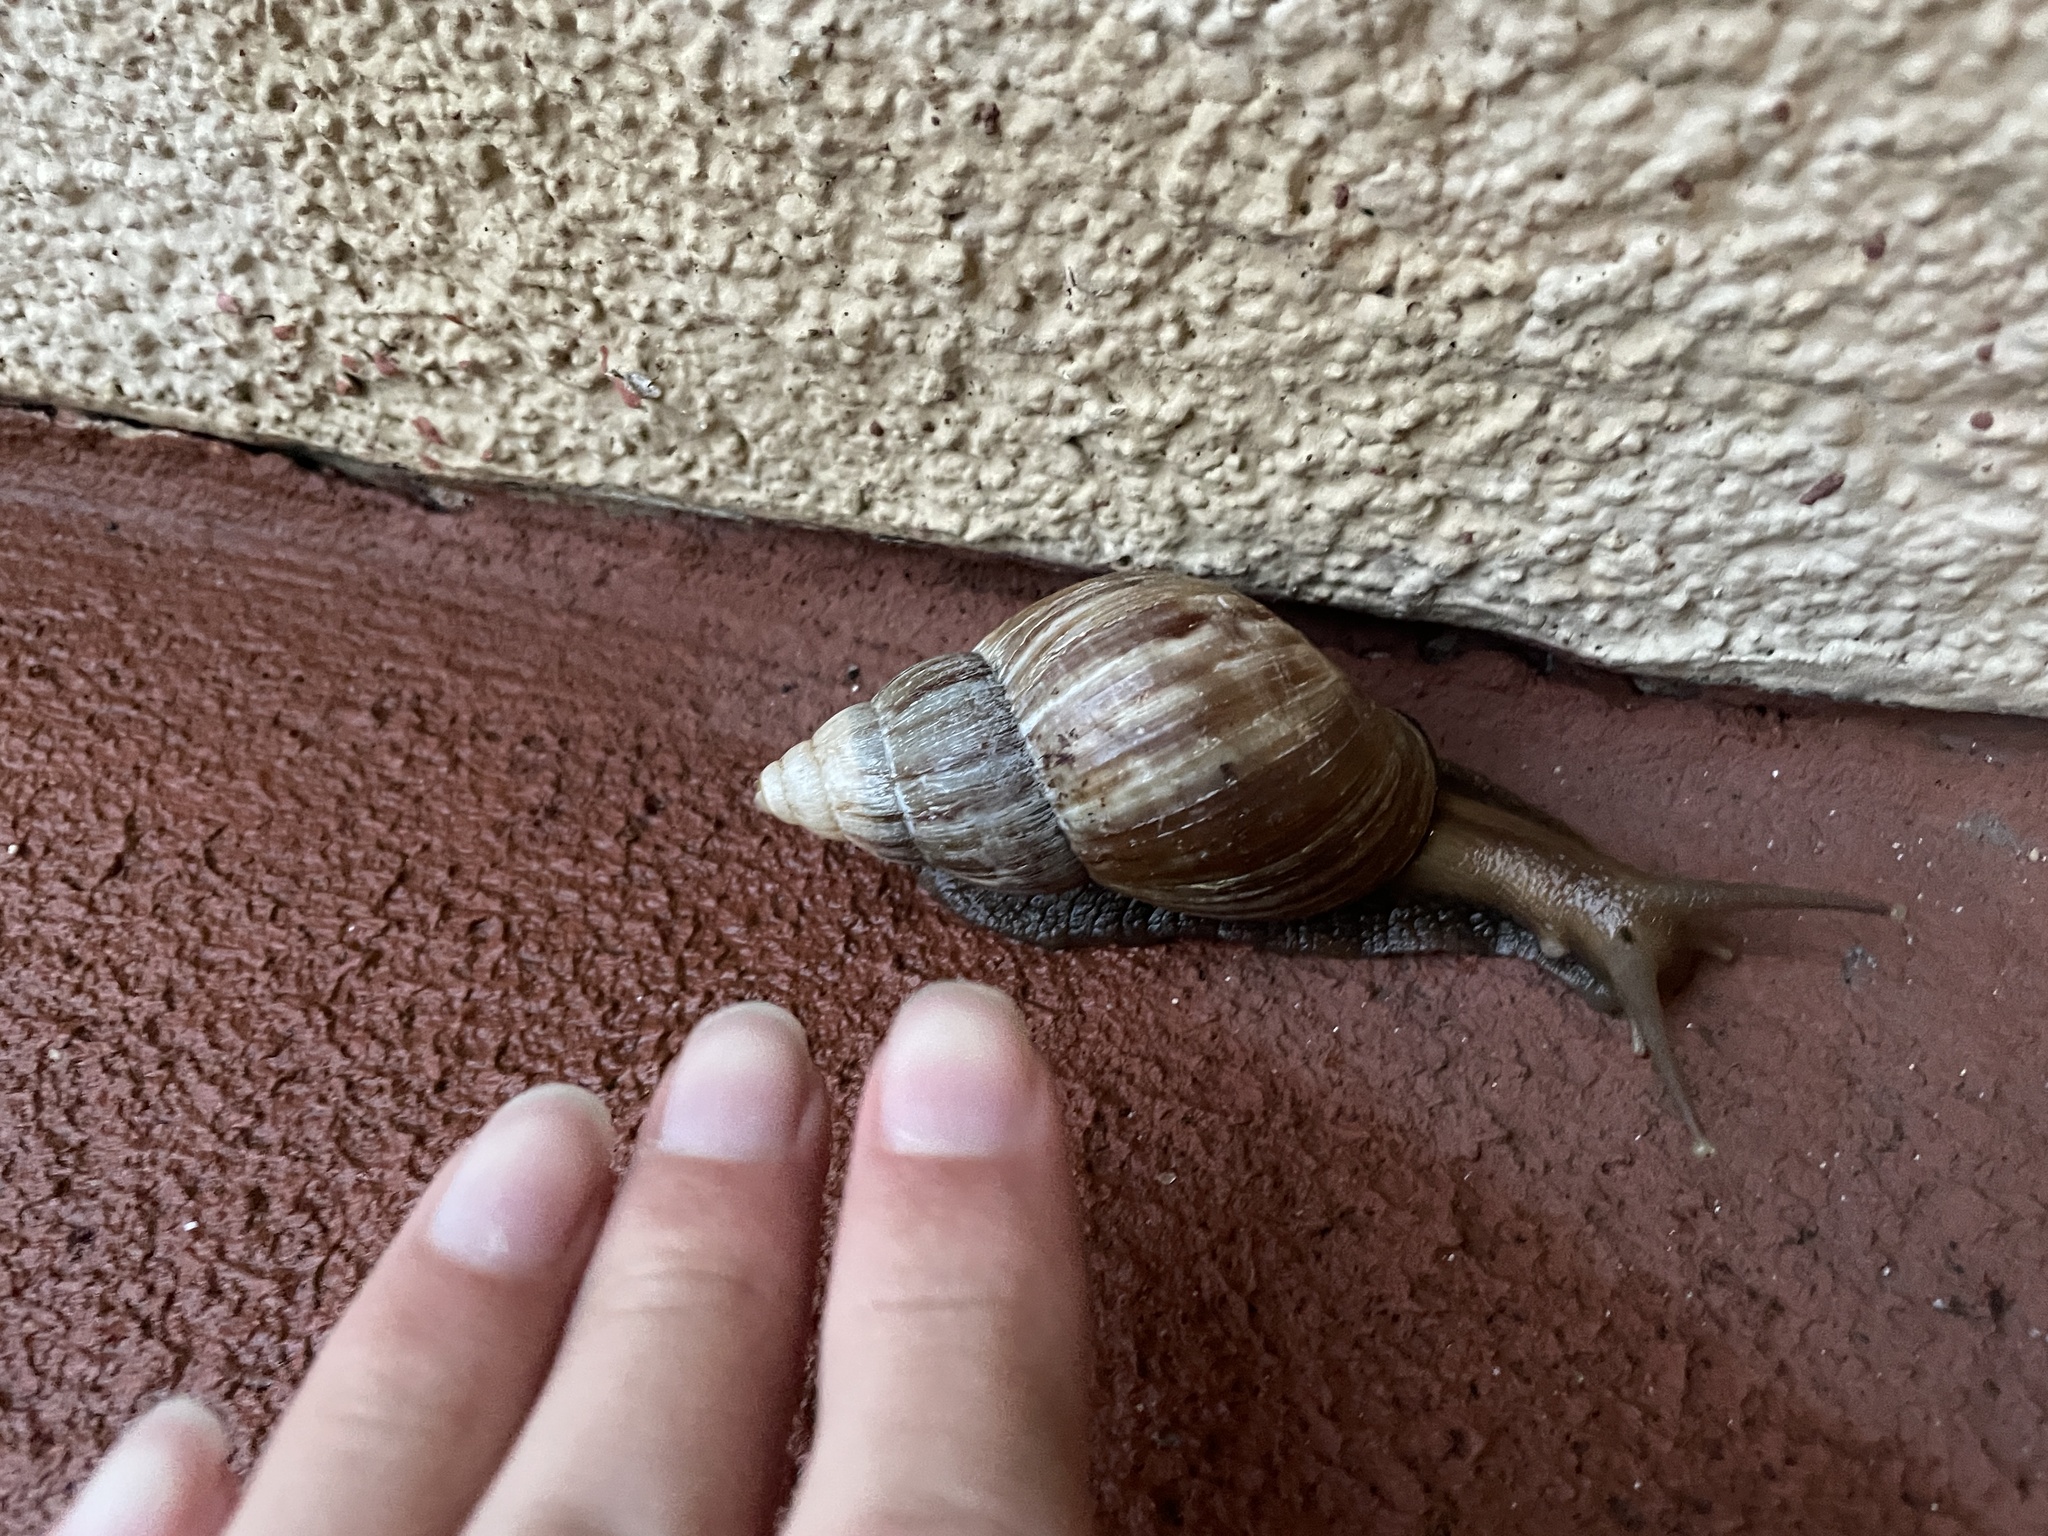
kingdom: Animalia
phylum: Mollusca
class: Gastropoda
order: Stylommatophora
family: Achatinidae
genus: Lissachatina
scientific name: Lissachatina fulica
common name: Giant african snail
